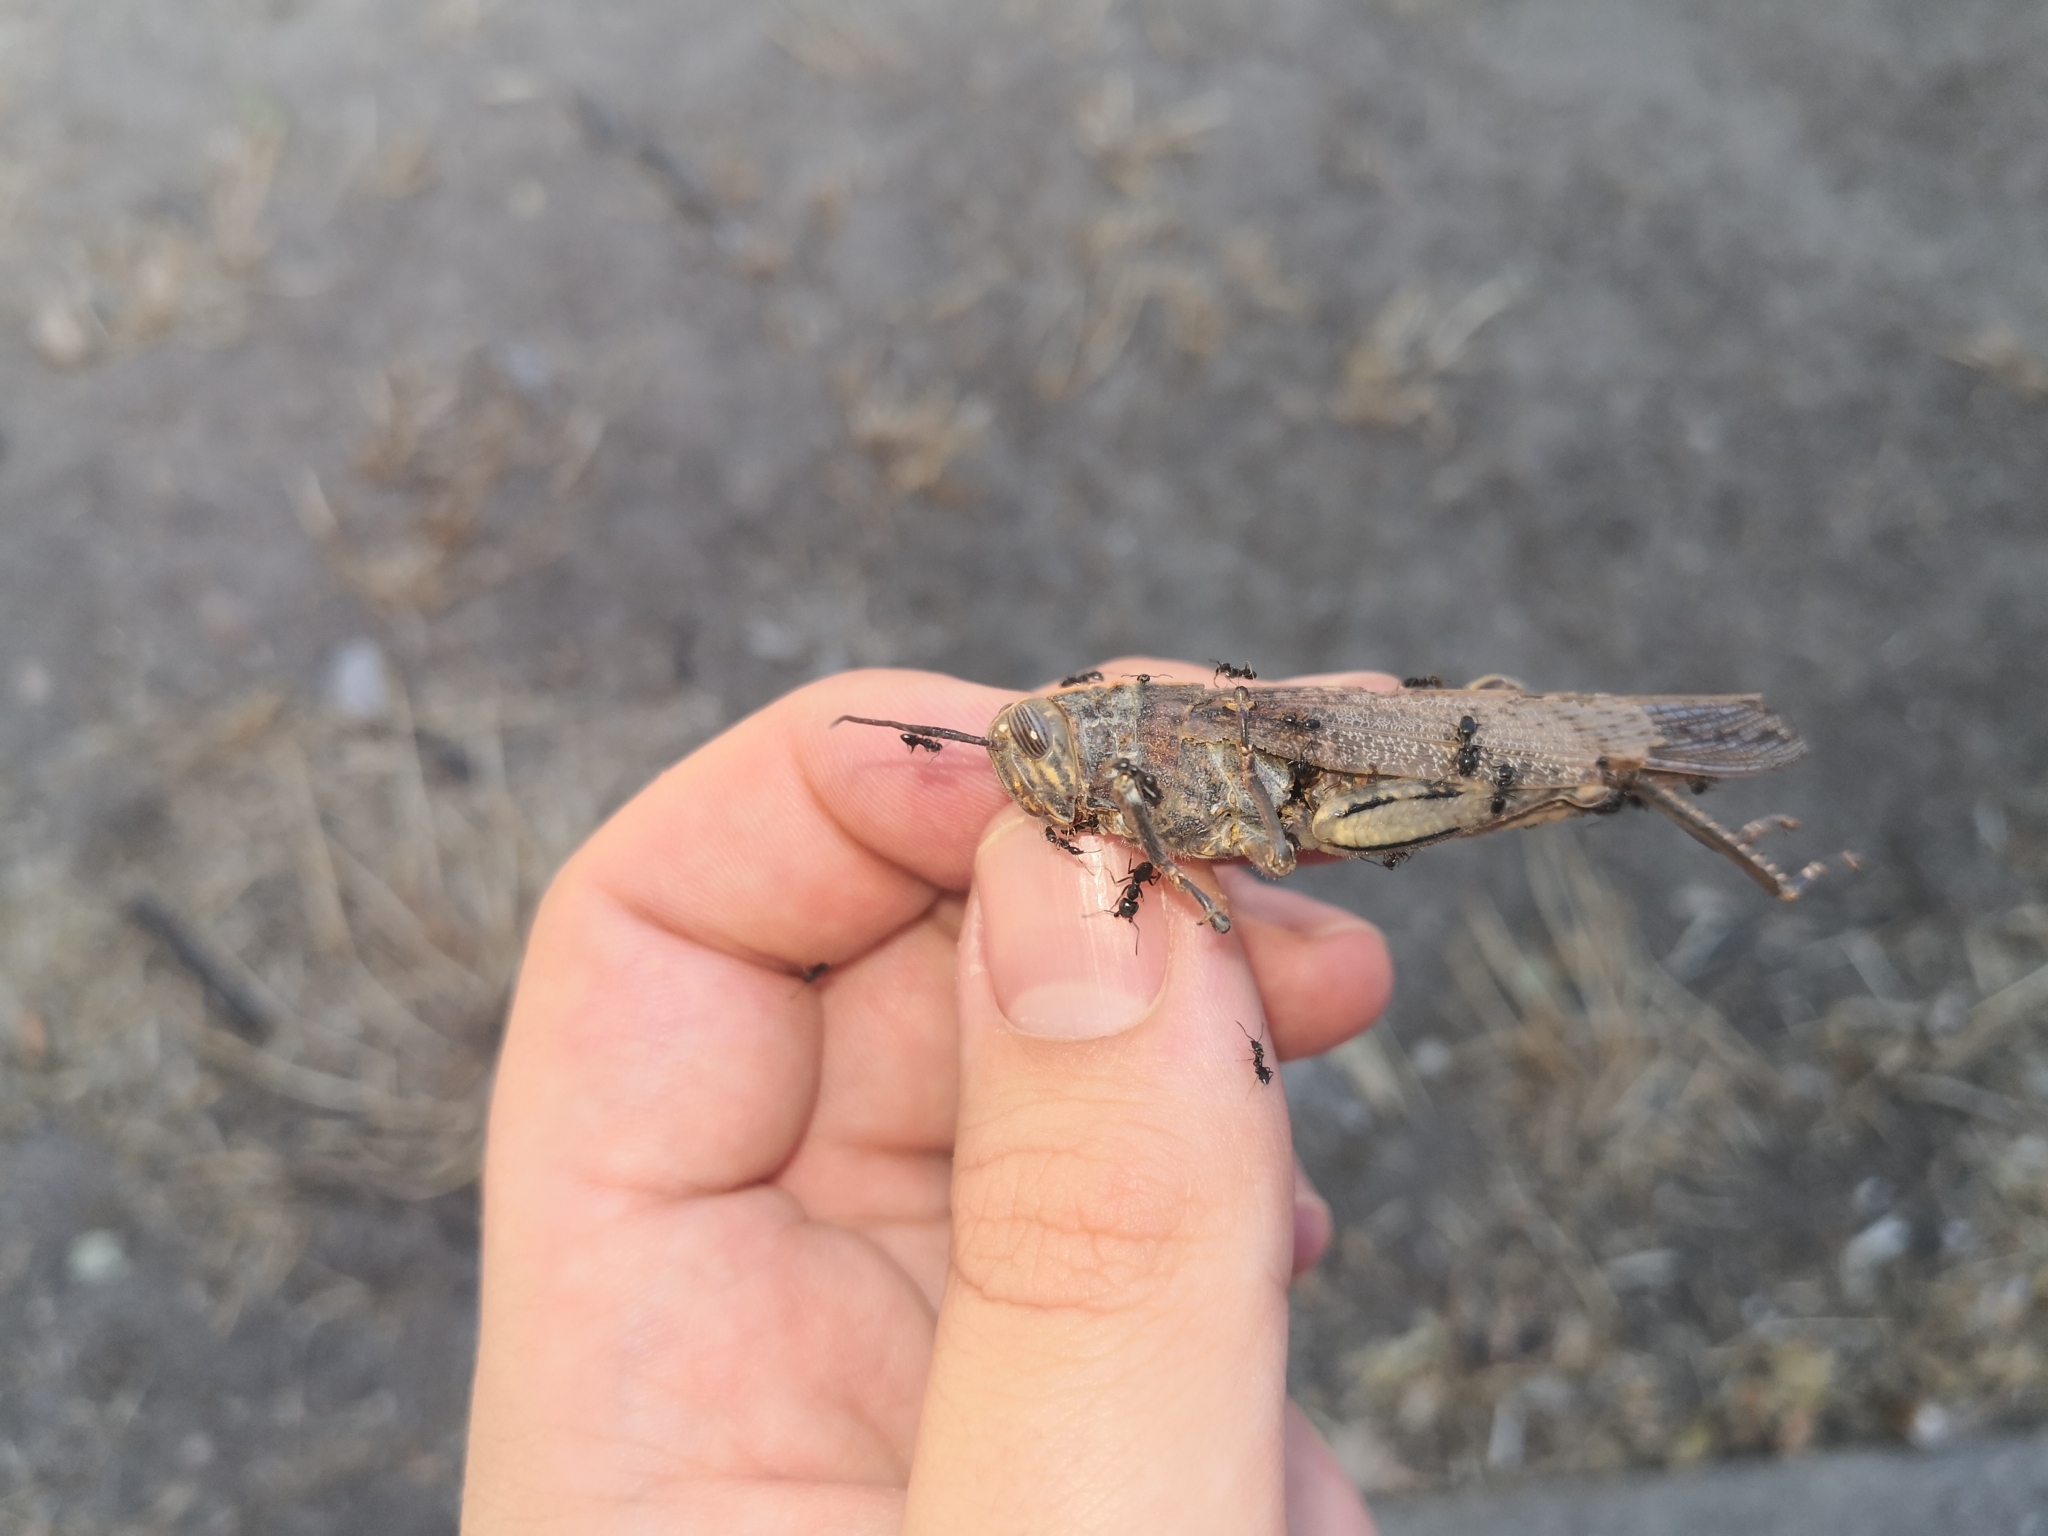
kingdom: Animalia
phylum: Arthropoda
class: Insecta
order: Orthoptera
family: Acrididae
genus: Anacridium
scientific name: Anacridium aegyptium
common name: Egyptian grasshopper
